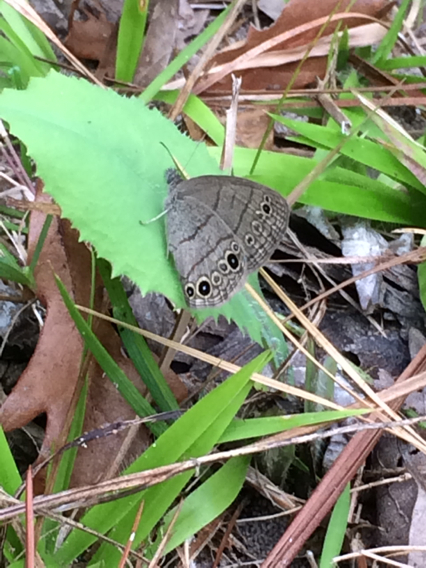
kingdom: Animalia
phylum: Arthropoda
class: Insecta
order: Lepidoptera
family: Nymphalidae
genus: Hermeuptychia
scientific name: Hermeuptychia hermes
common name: Hermes satyr
